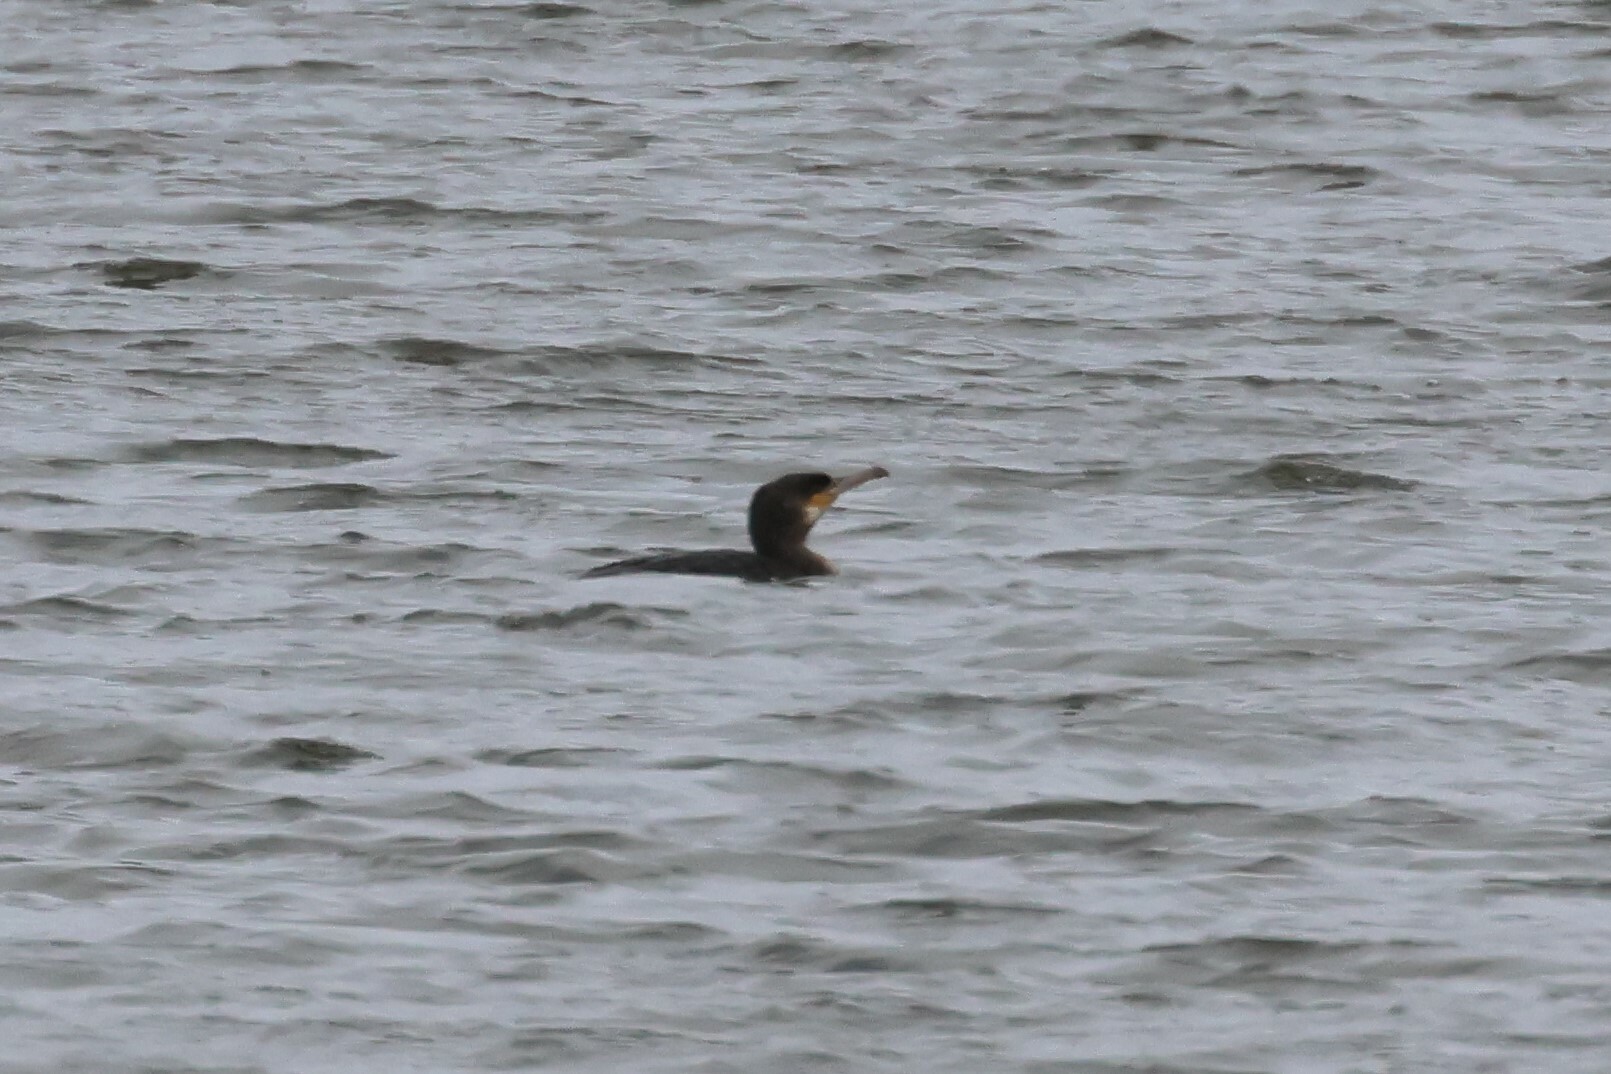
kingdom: Animalia
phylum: Chordata
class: Aves
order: Suliformes
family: Phalacrocoracidae
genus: Phalacrocorax
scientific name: Phalacrocorax carbo
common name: Great cormorant
